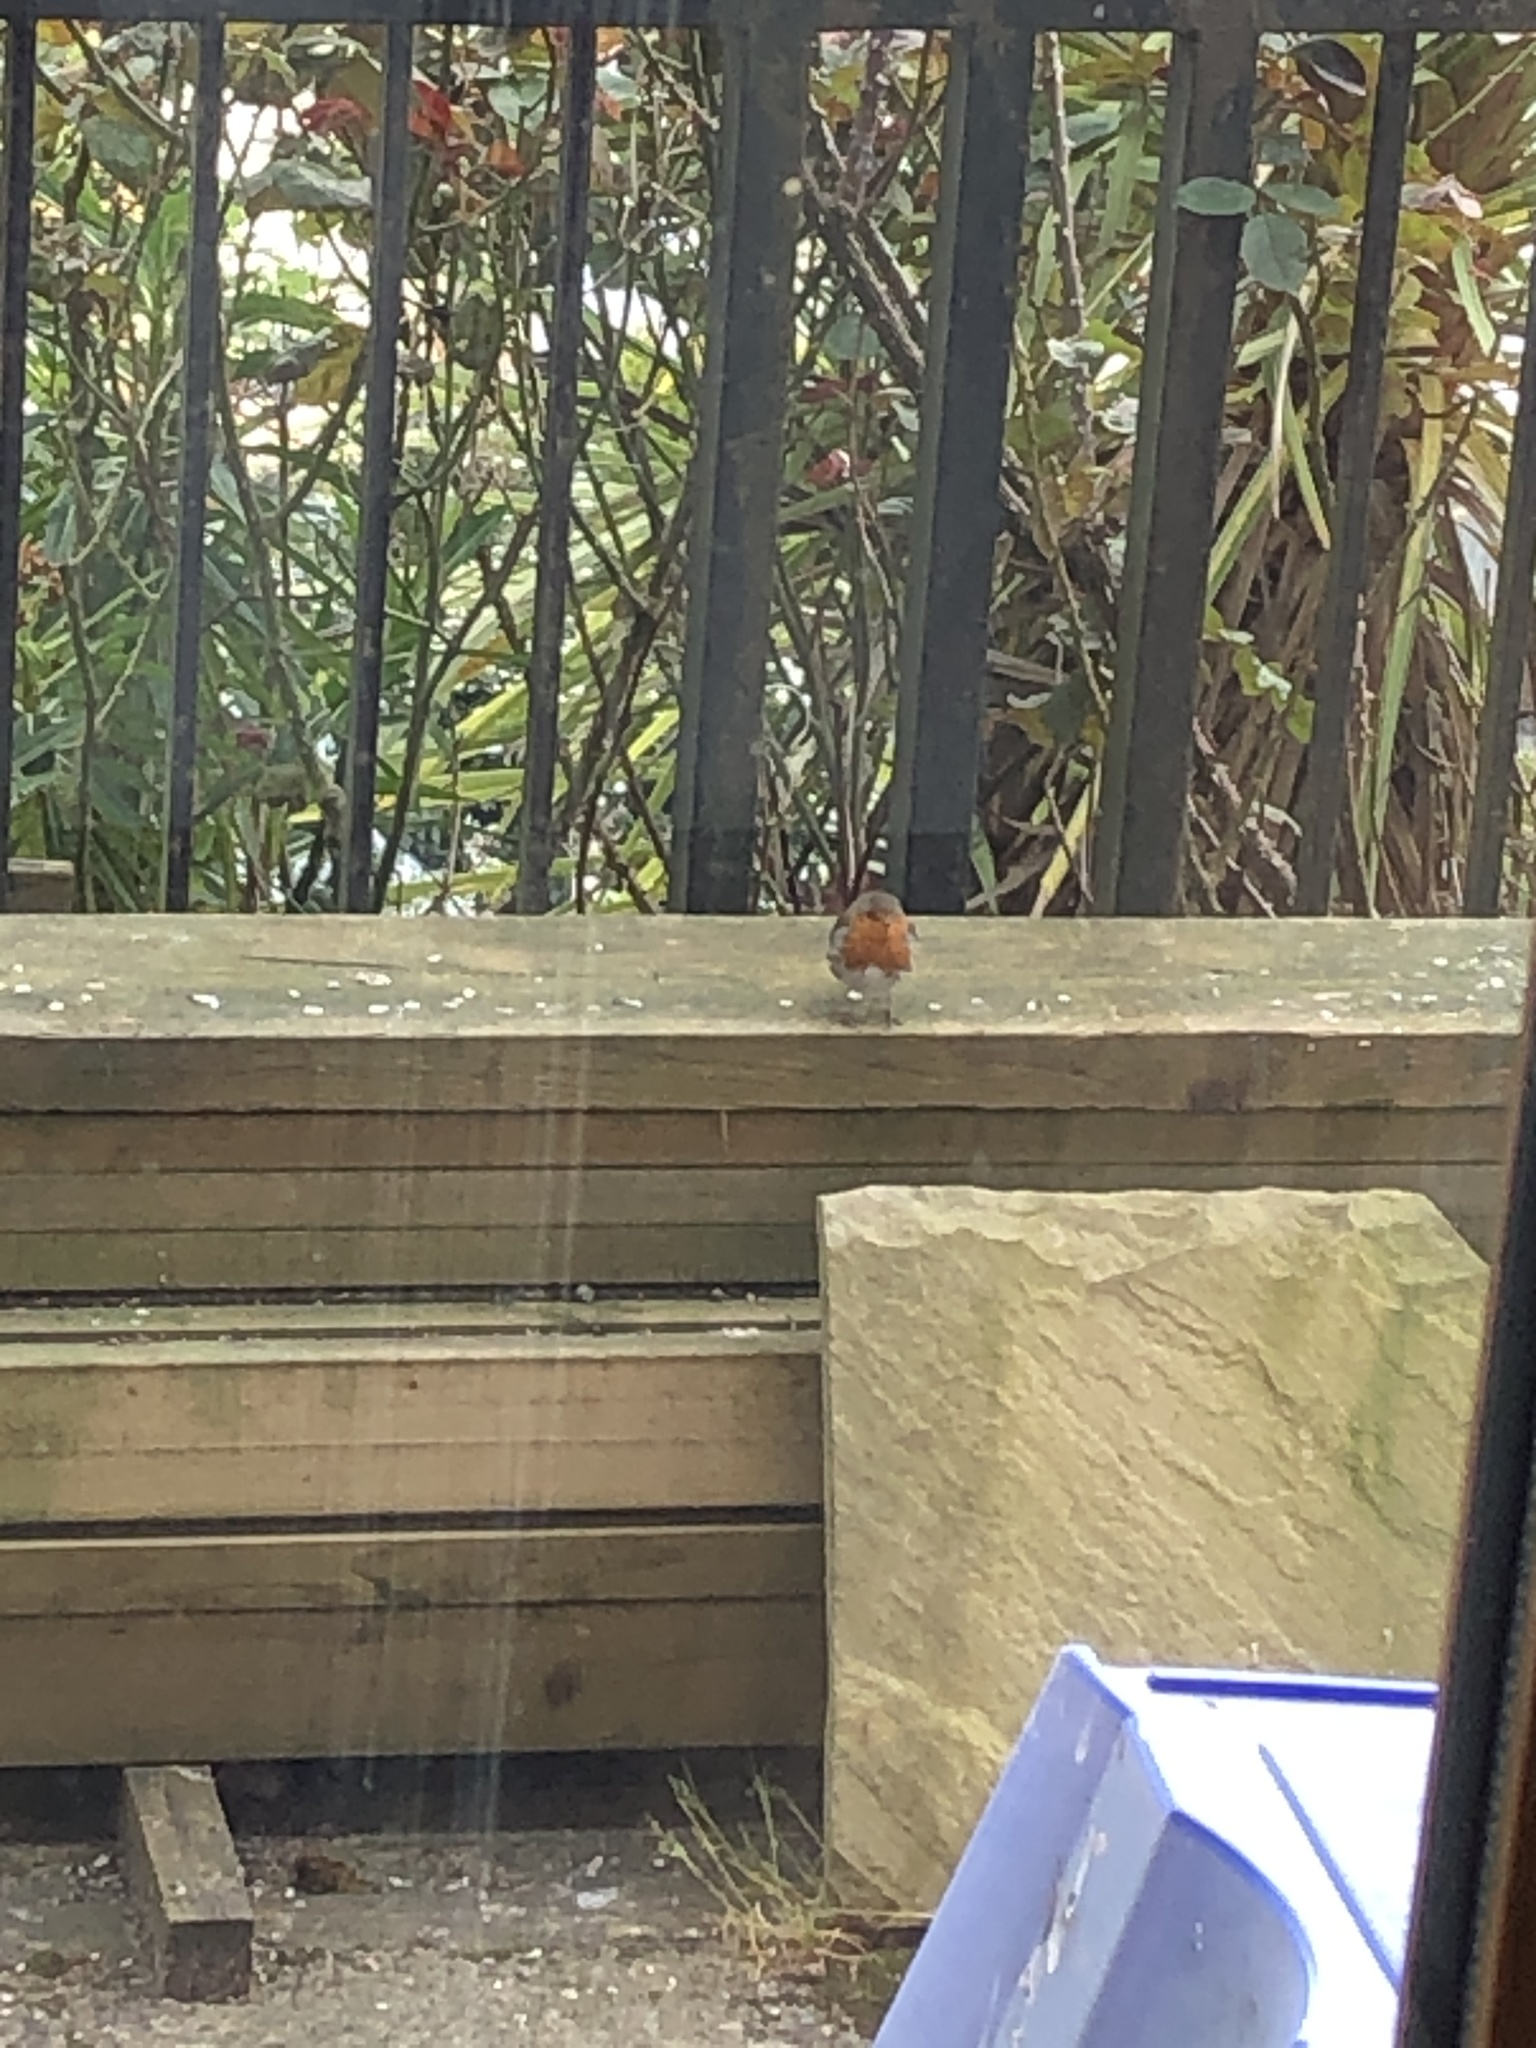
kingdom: Animalia
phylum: Chordata
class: Aves
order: Passeriformes
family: Muscicapidae
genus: Erithacus
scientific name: Erithacus rubecula
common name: European robin
